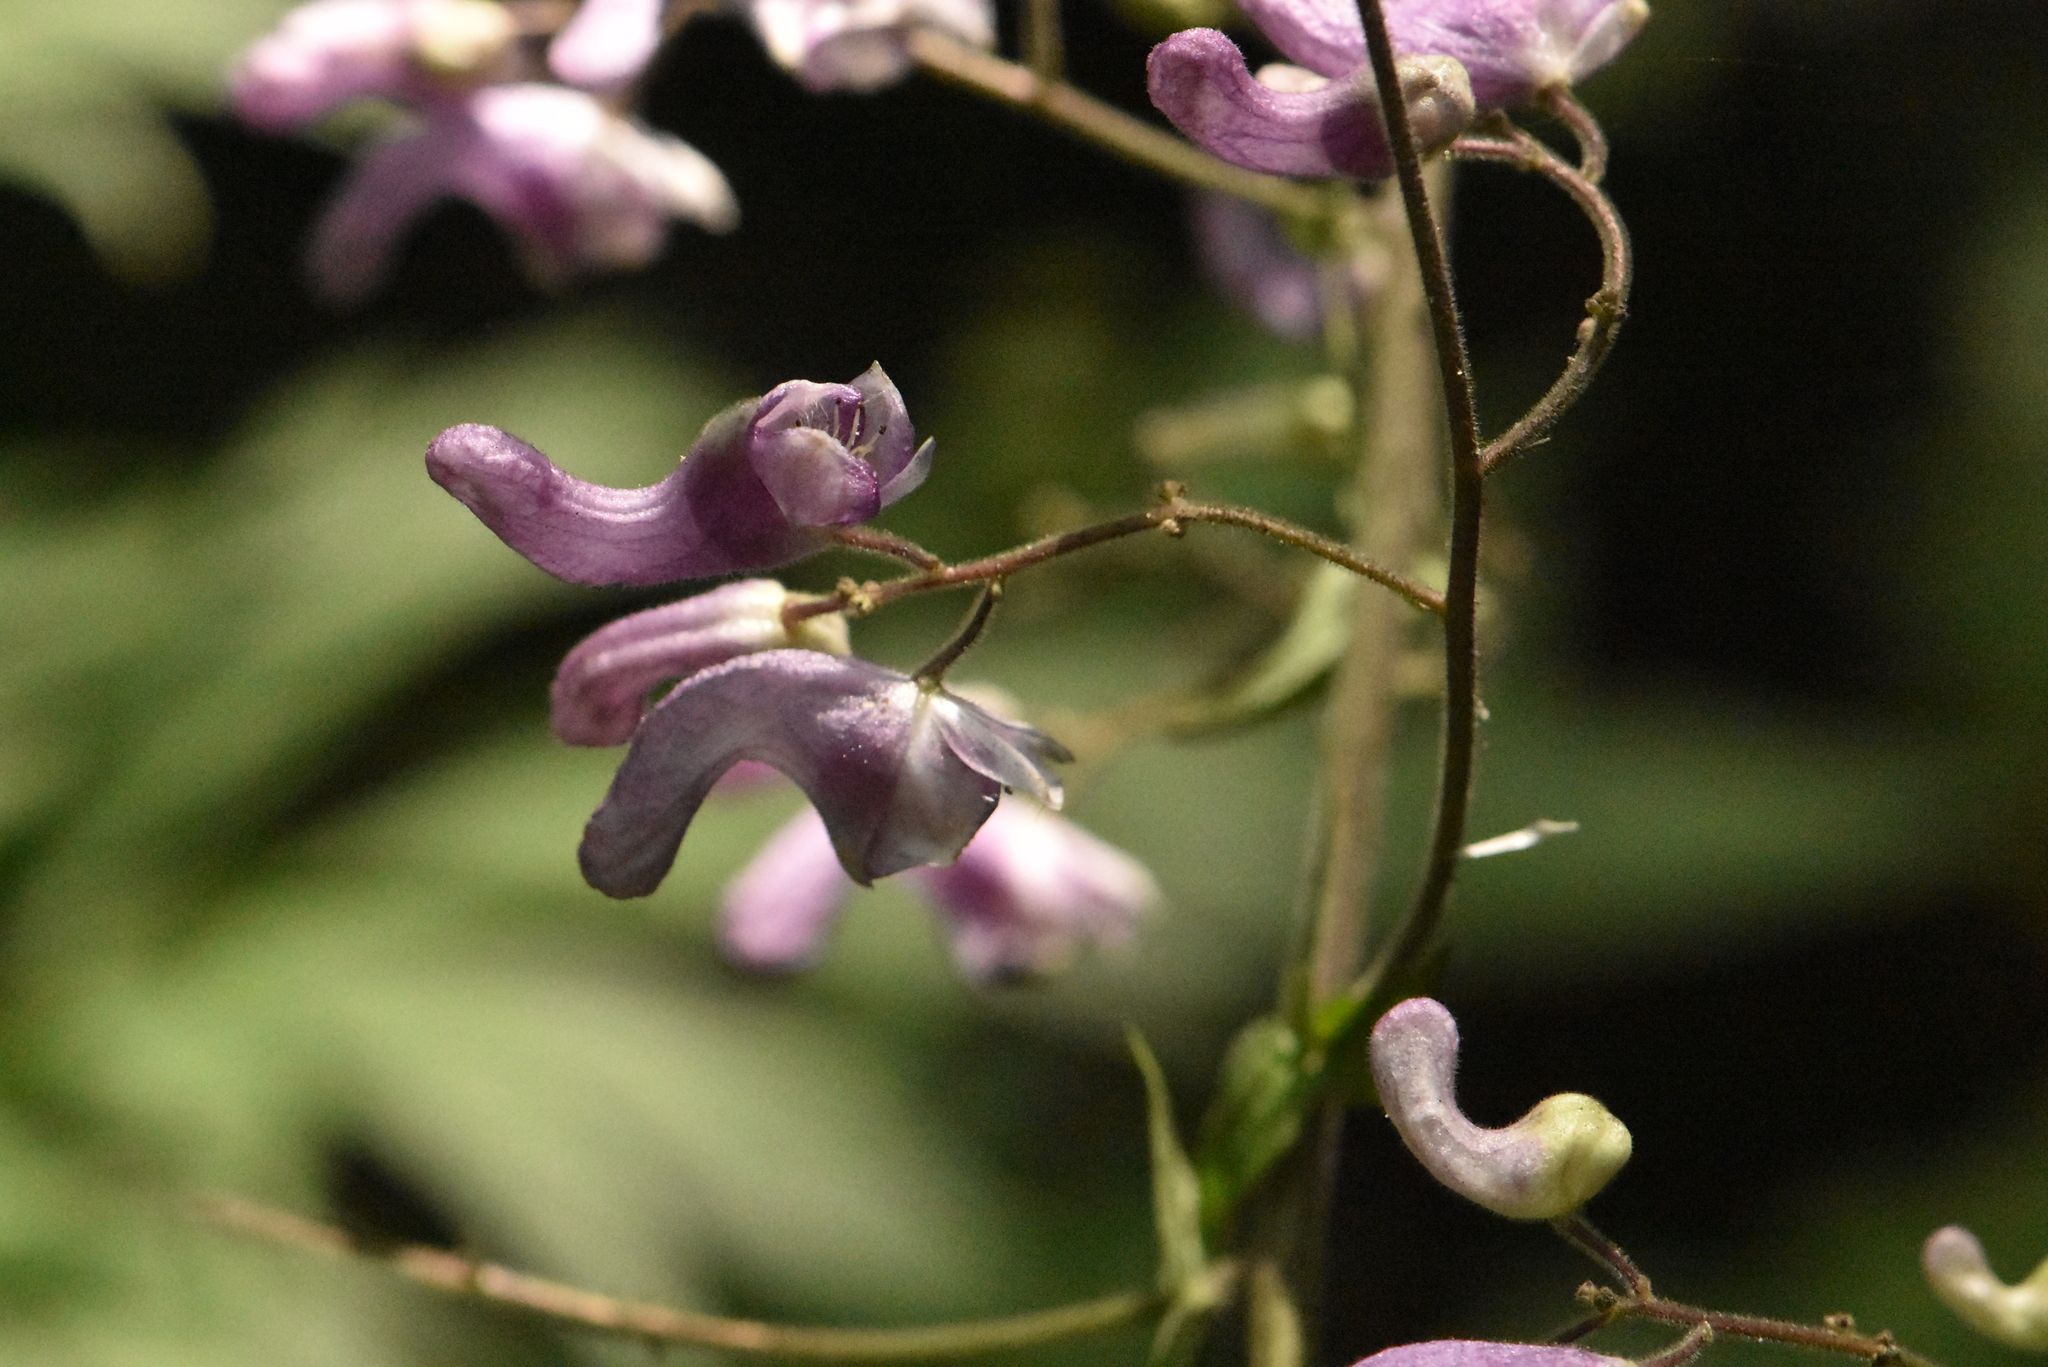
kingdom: Plantae
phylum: Tracheophyta
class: Magnoliopsida
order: Ranunculales
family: Ranunculaceae
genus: Aconitum
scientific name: Aconitum septentrionale
